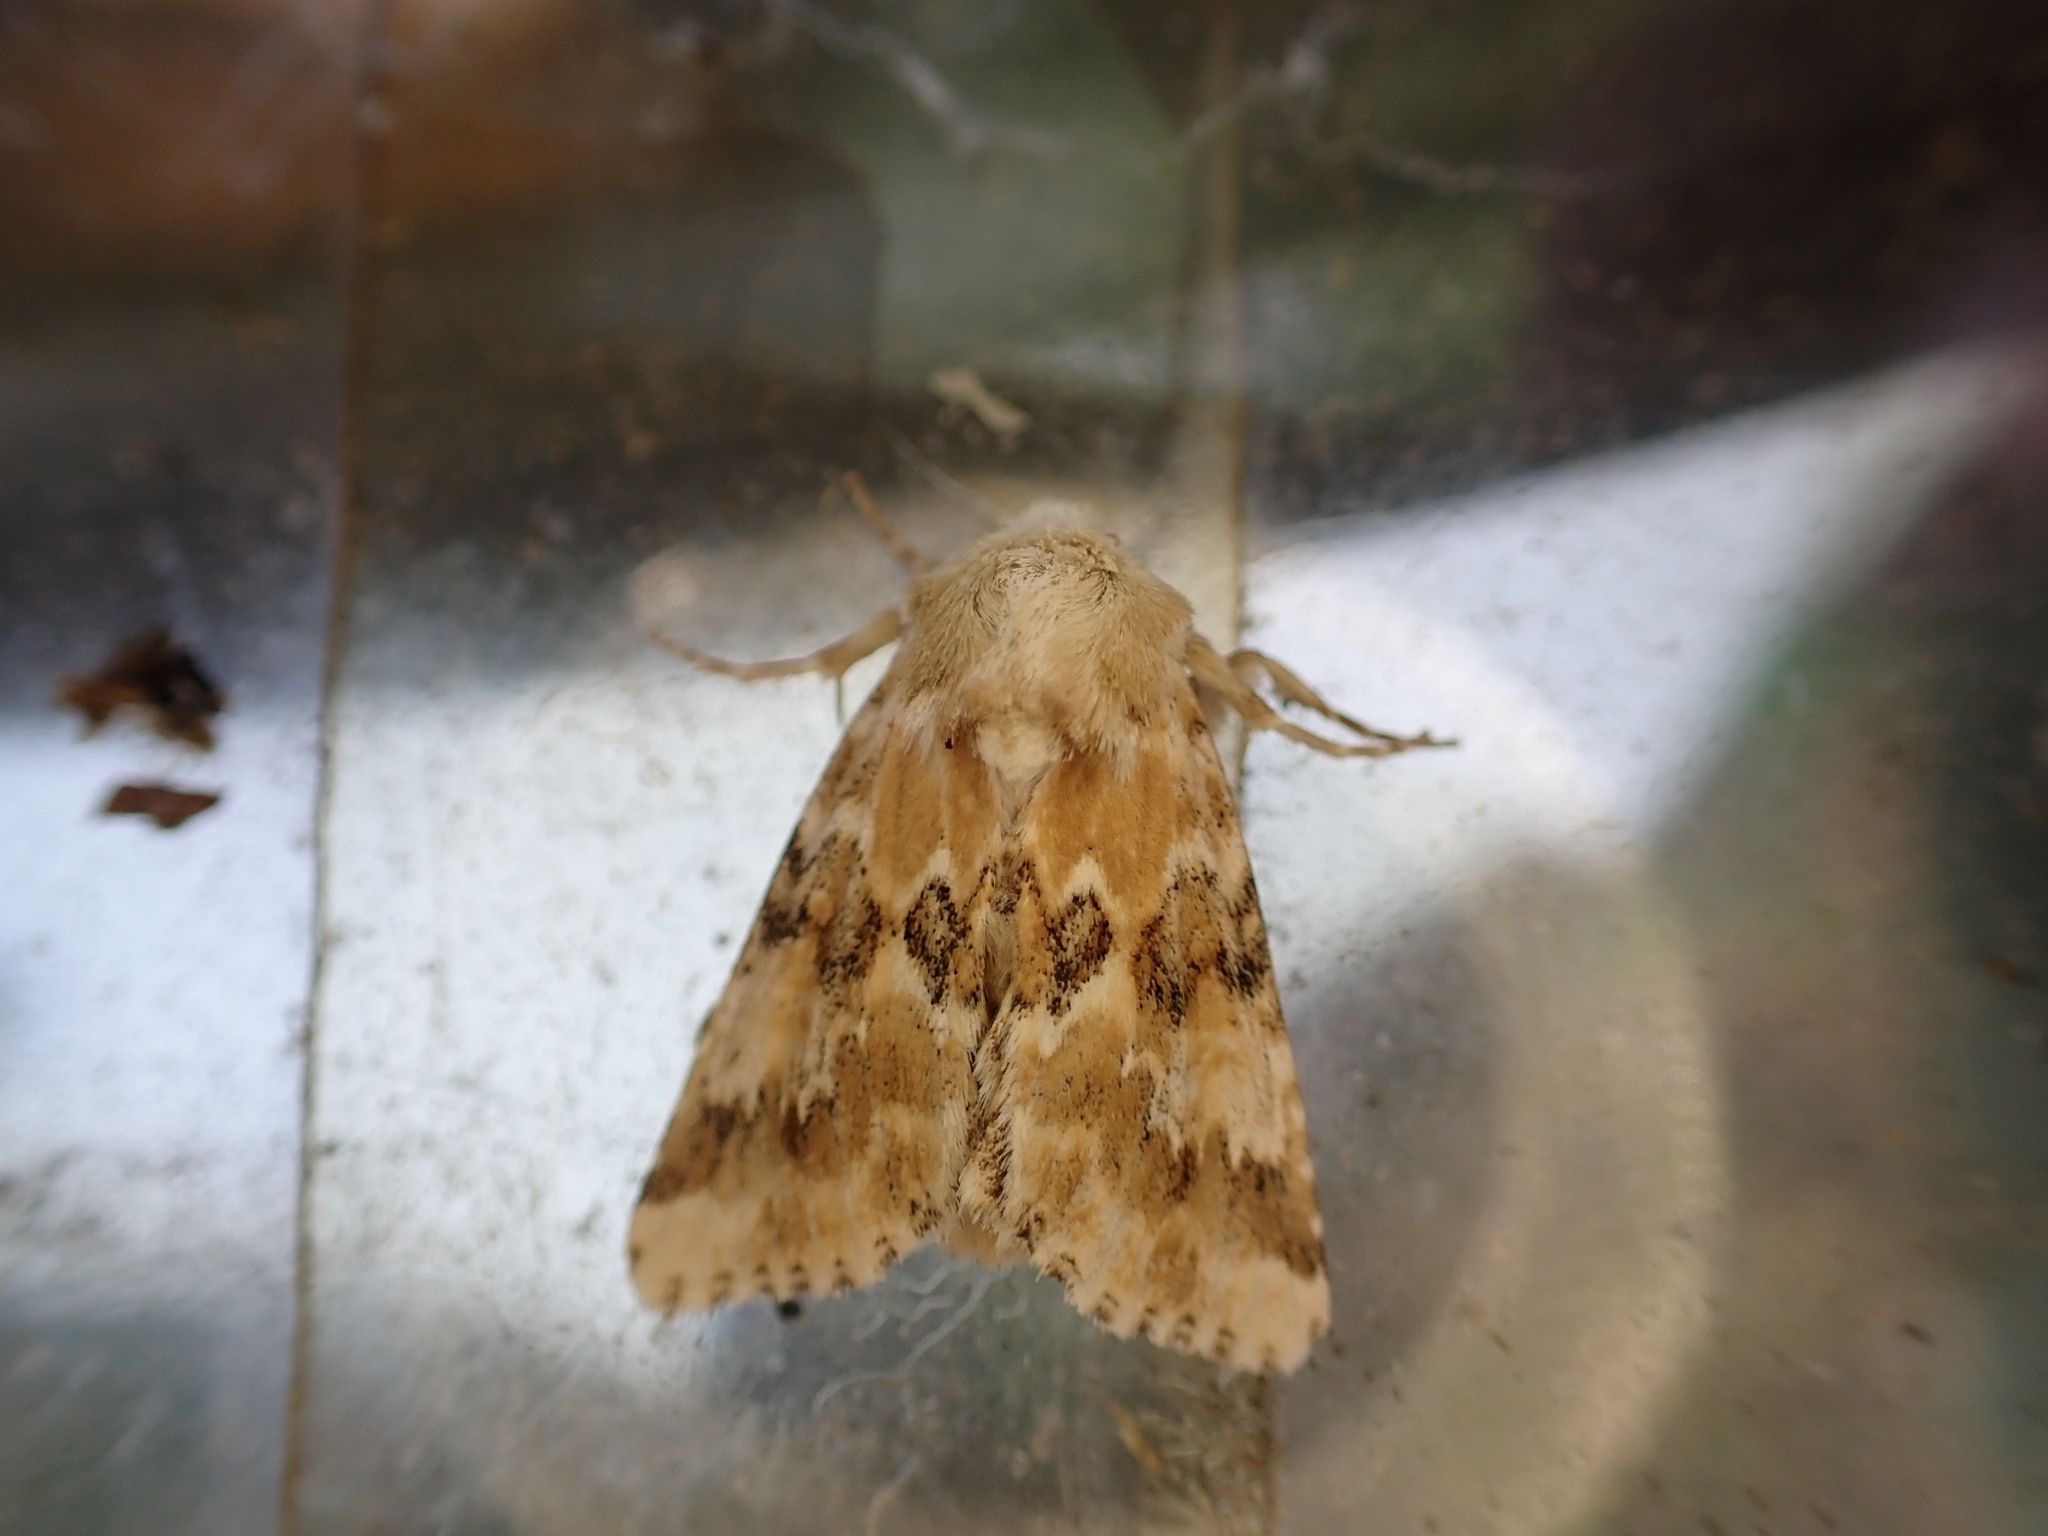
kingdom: Animalia
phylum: Arthropoda
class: Insecta
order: Lepidoptera
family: Noctuidae
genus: Eremobia
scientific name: Eremobia ochroleuca
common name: Dusky sallow
